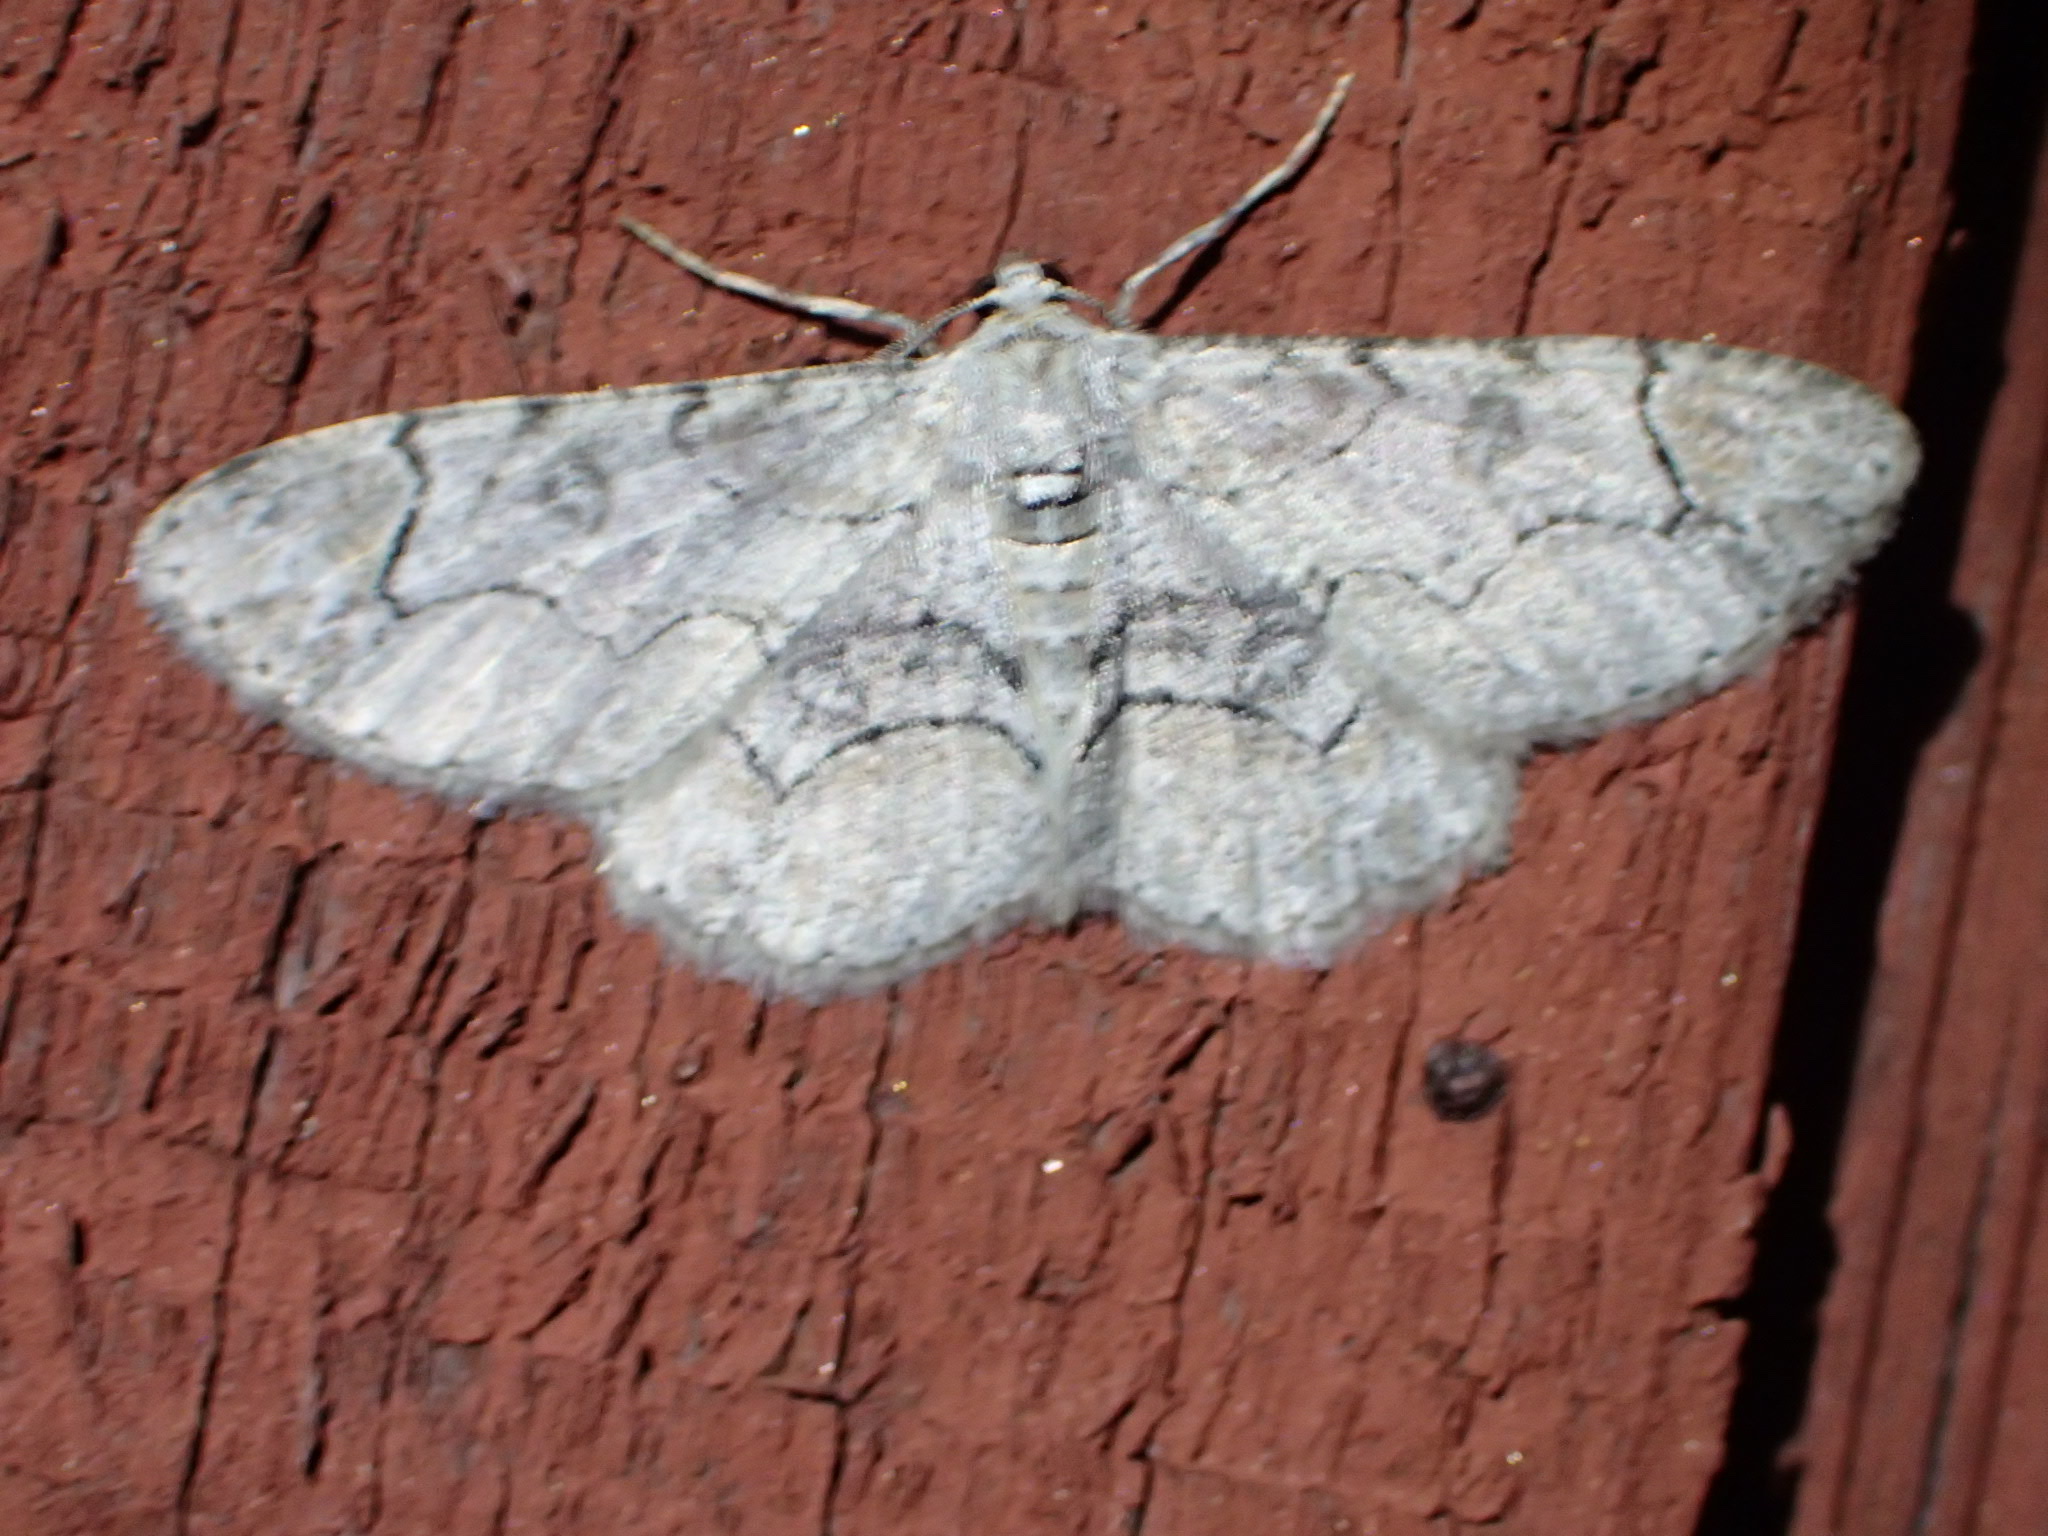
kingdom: Animalia
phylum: Arthropoda
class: Insecta
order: Lepidoptera
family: Geometridae
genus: Iridopsis
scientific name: Iridopsis larvaria
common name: Bent-line gray
